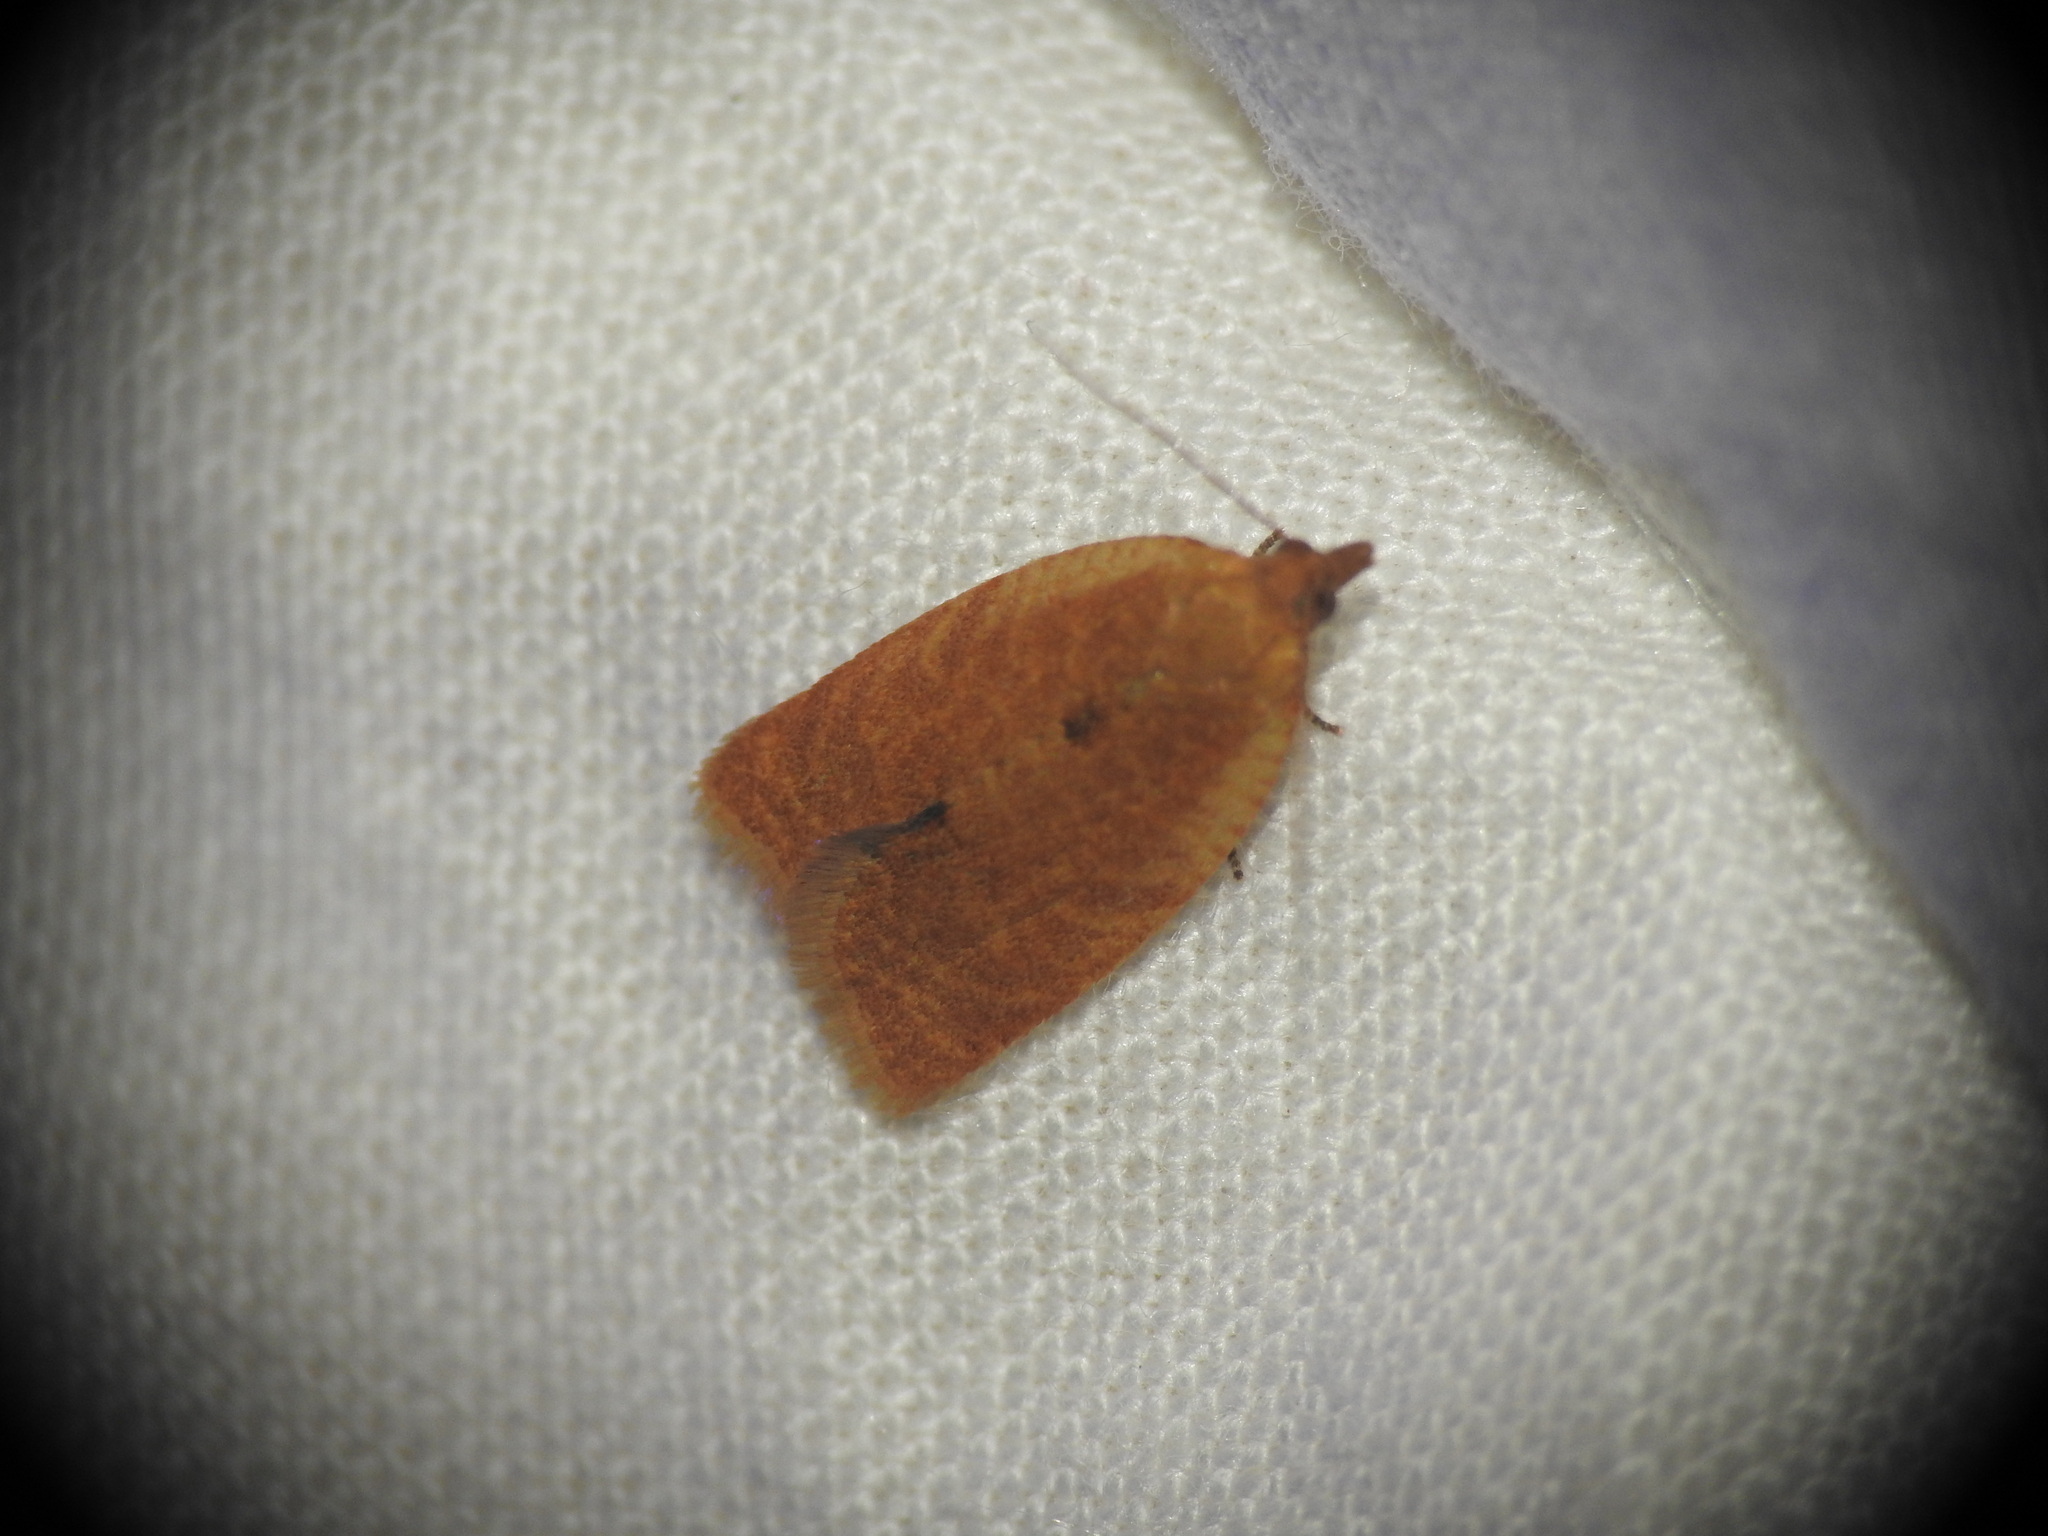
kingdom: Animalia
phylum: Arthropoda
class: Insecta
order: Lepidoptera
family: Tortricidae
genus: Clepsis
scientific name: Clepsis consimilana
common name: Privet tortrix
